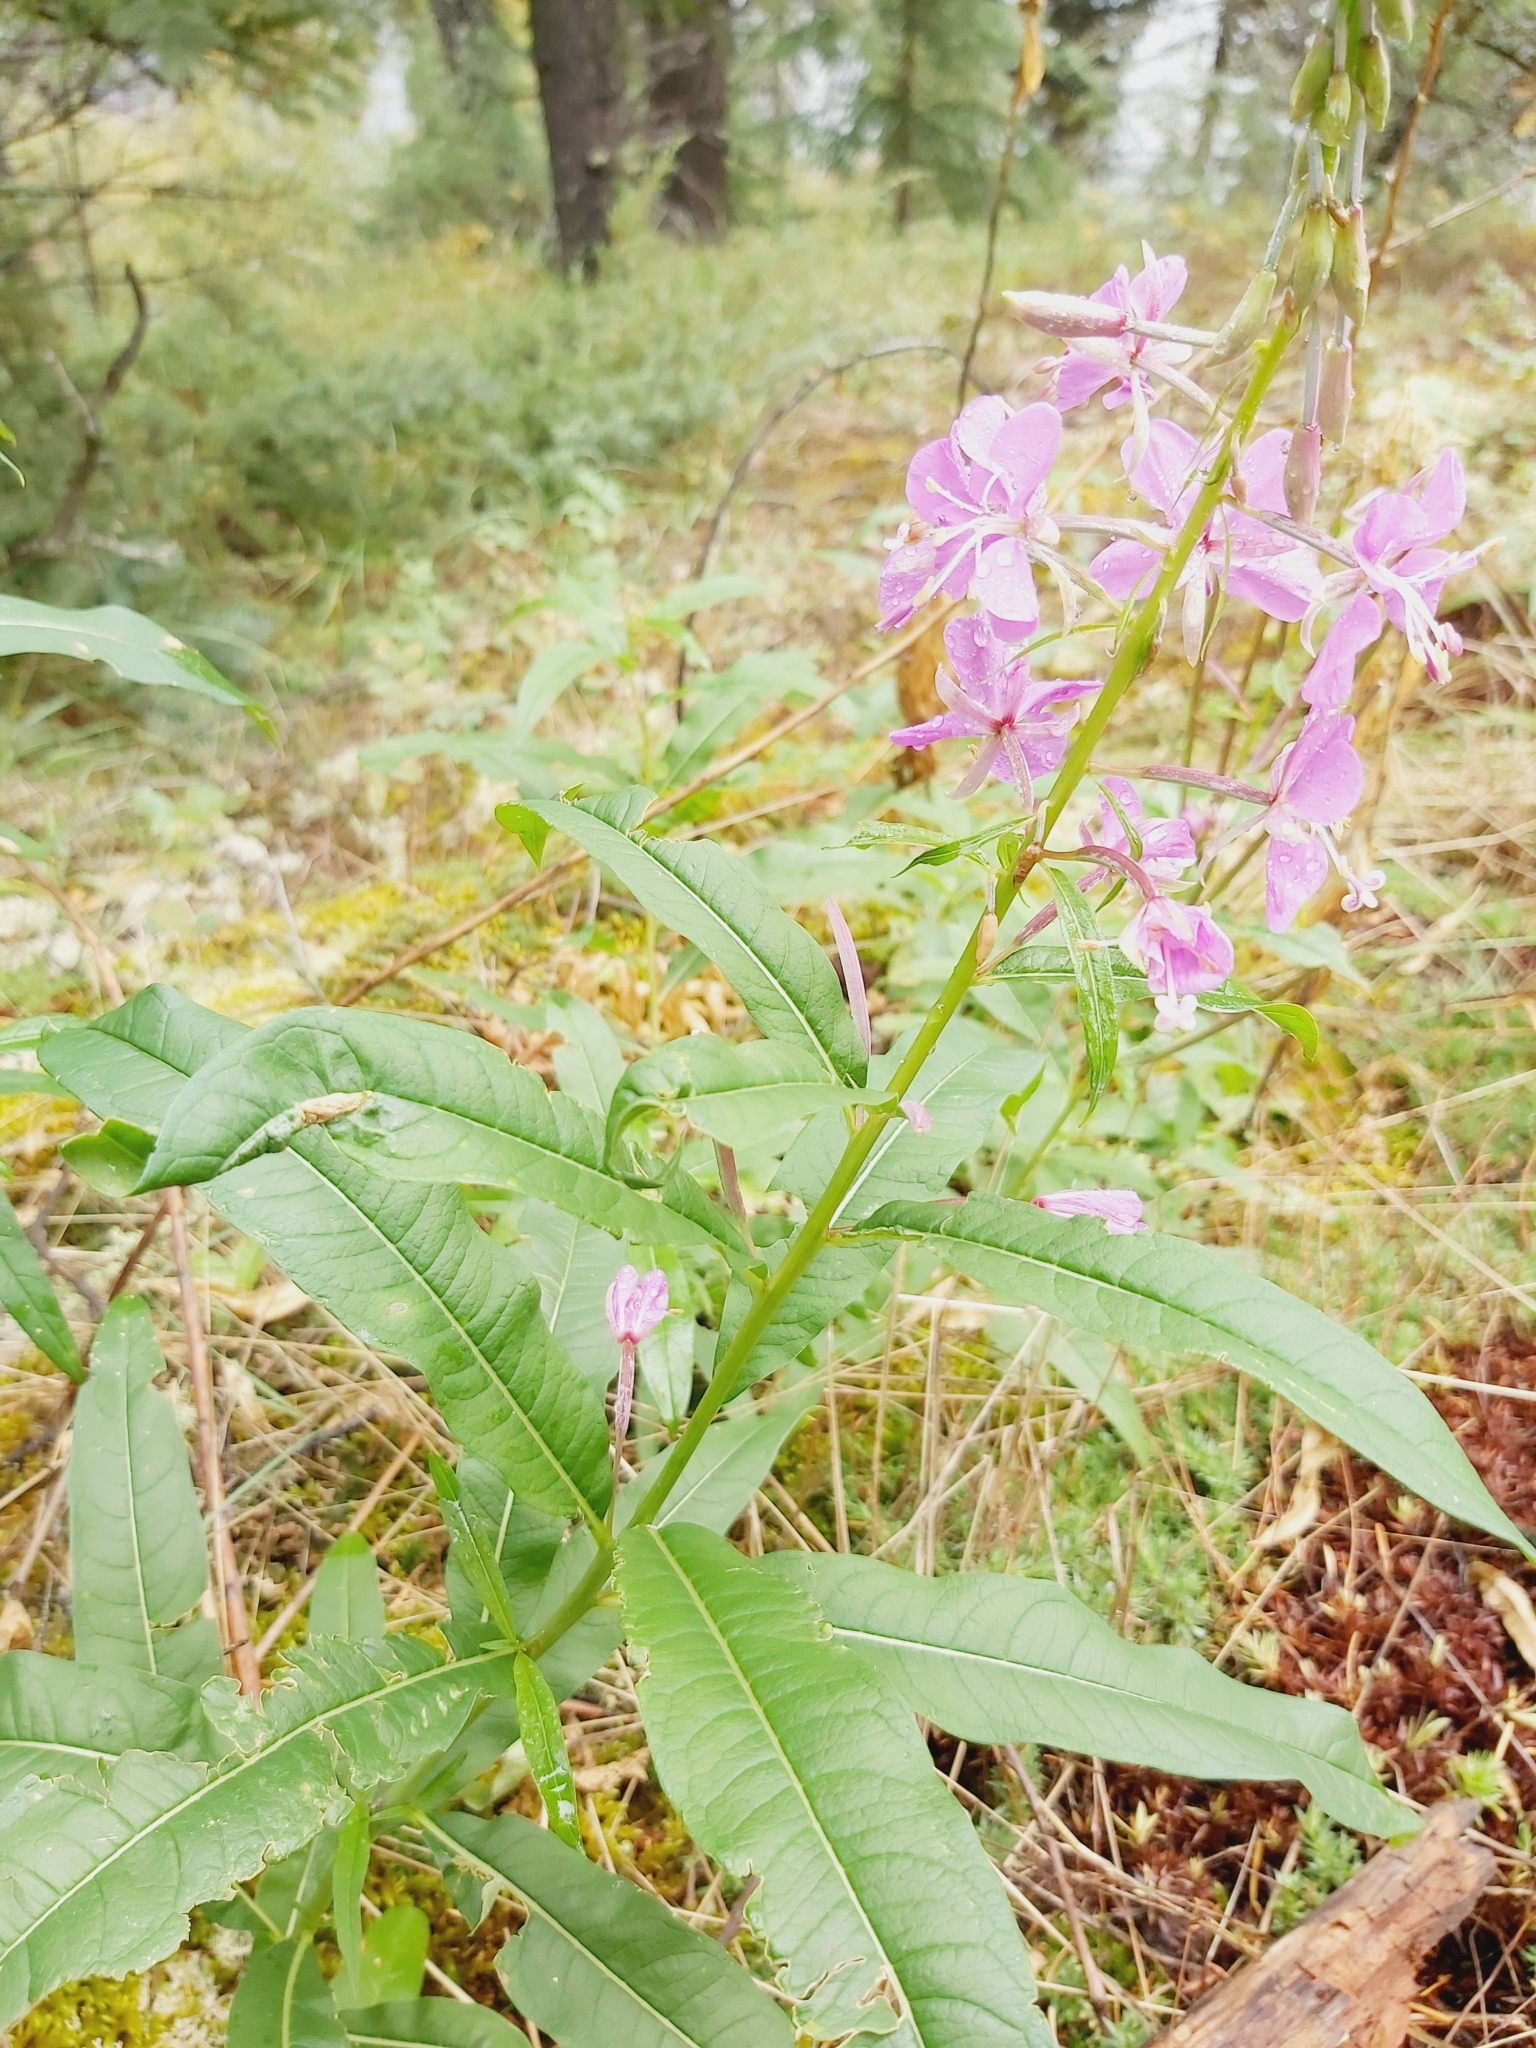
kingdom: Plantae
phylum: Tracheophyta
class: Magnoliopsida
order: Myrtales
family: Onagraceae
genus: Chamaenerion
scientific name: Chamaenerion angustifolium
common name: Fireweed
